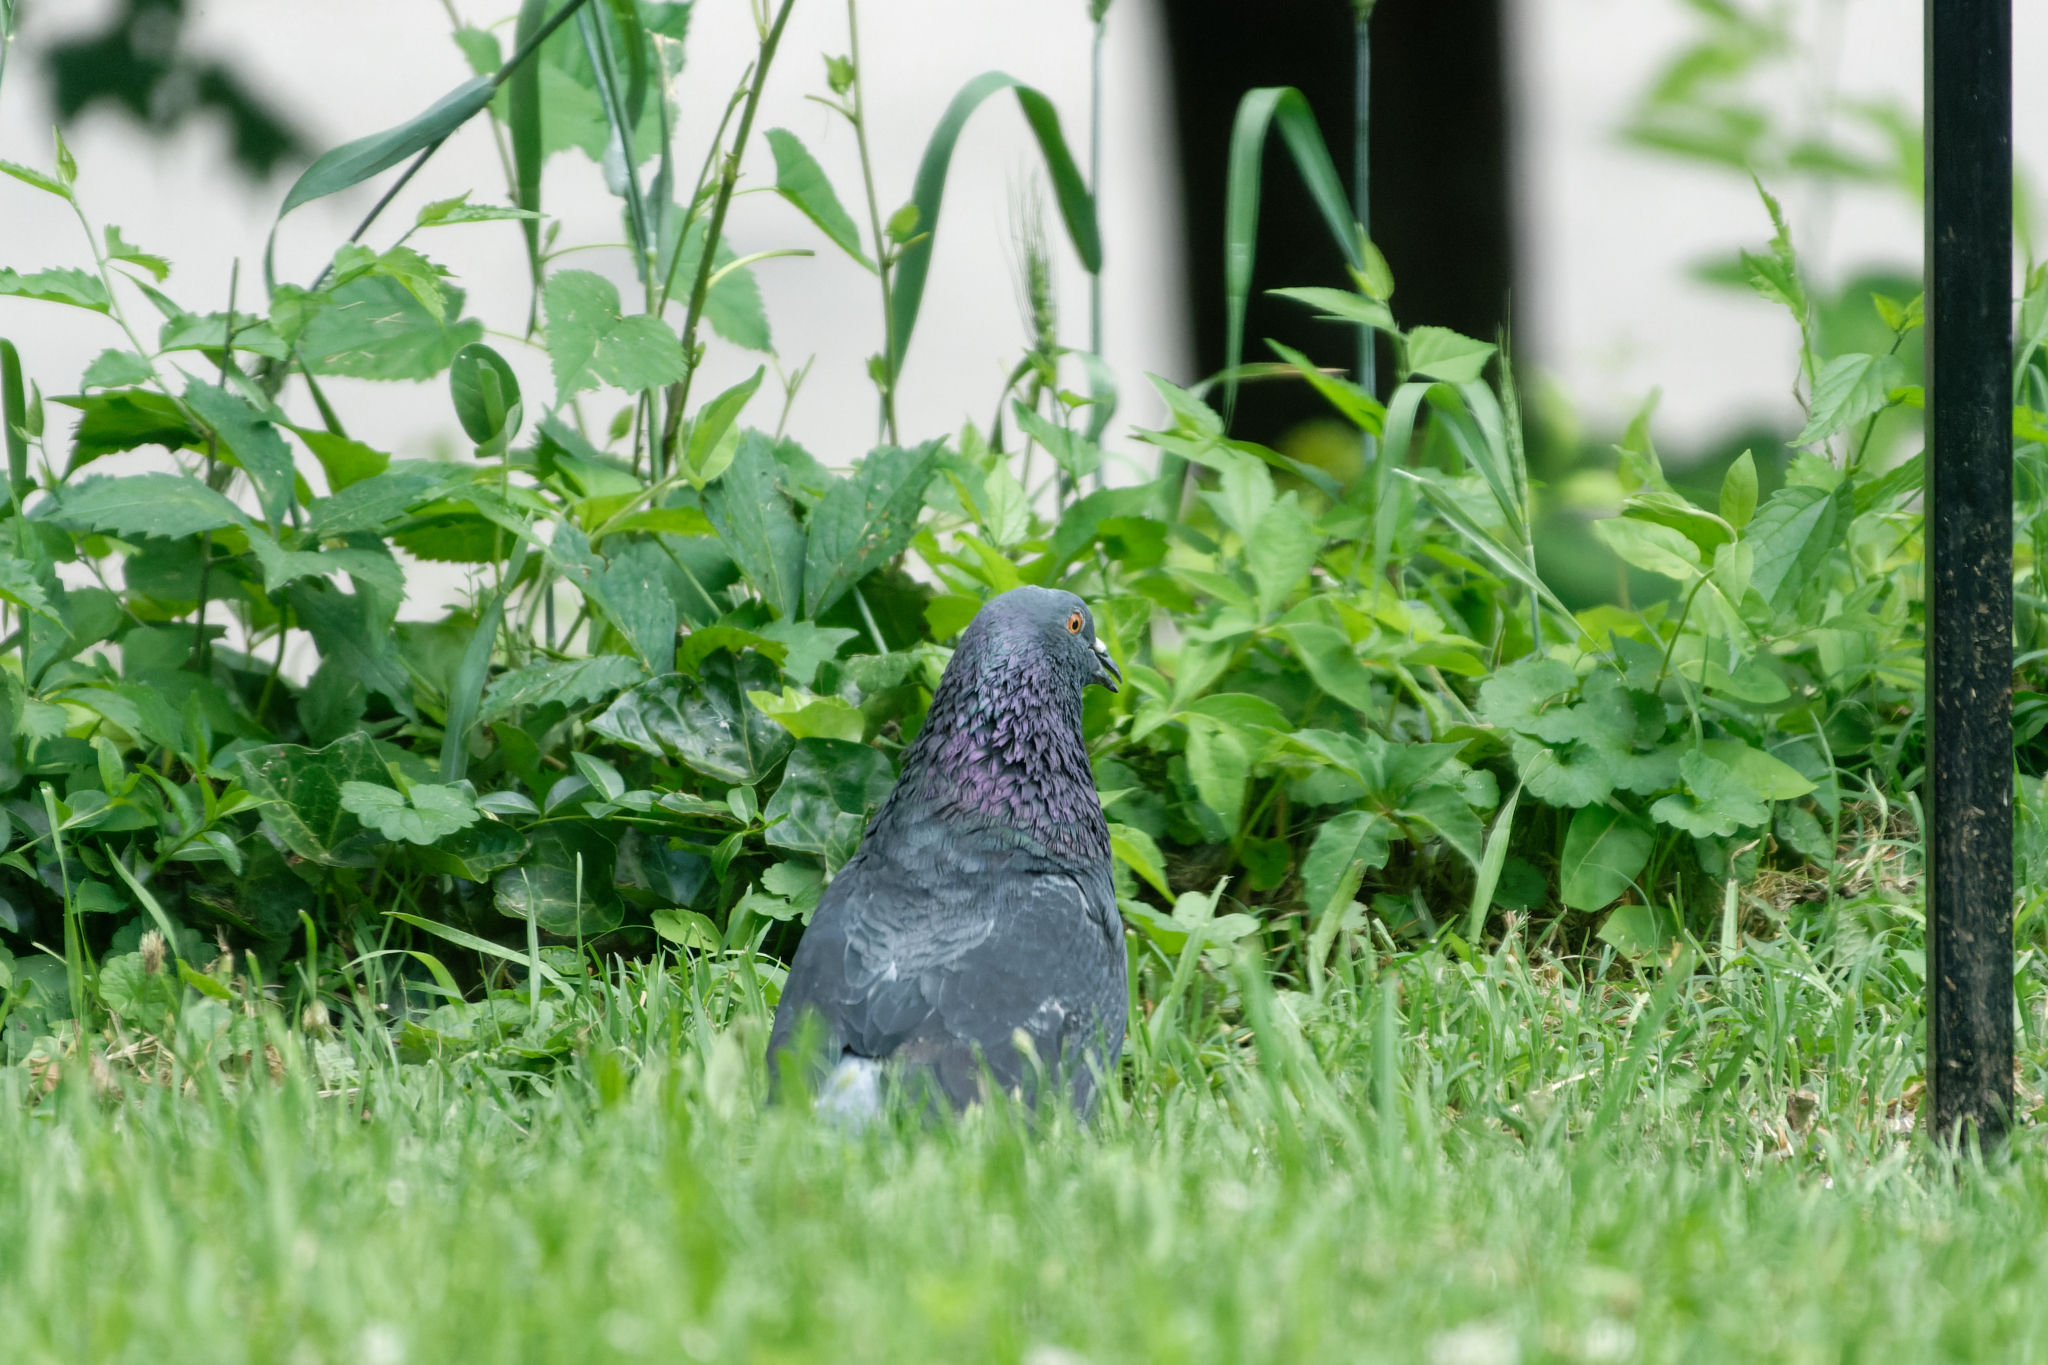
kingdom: Animalia
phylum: Chordata
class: Aves
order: Columbiformes
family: Columbidae
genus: Columba
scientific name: Columba livia
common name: Rock pigeon
